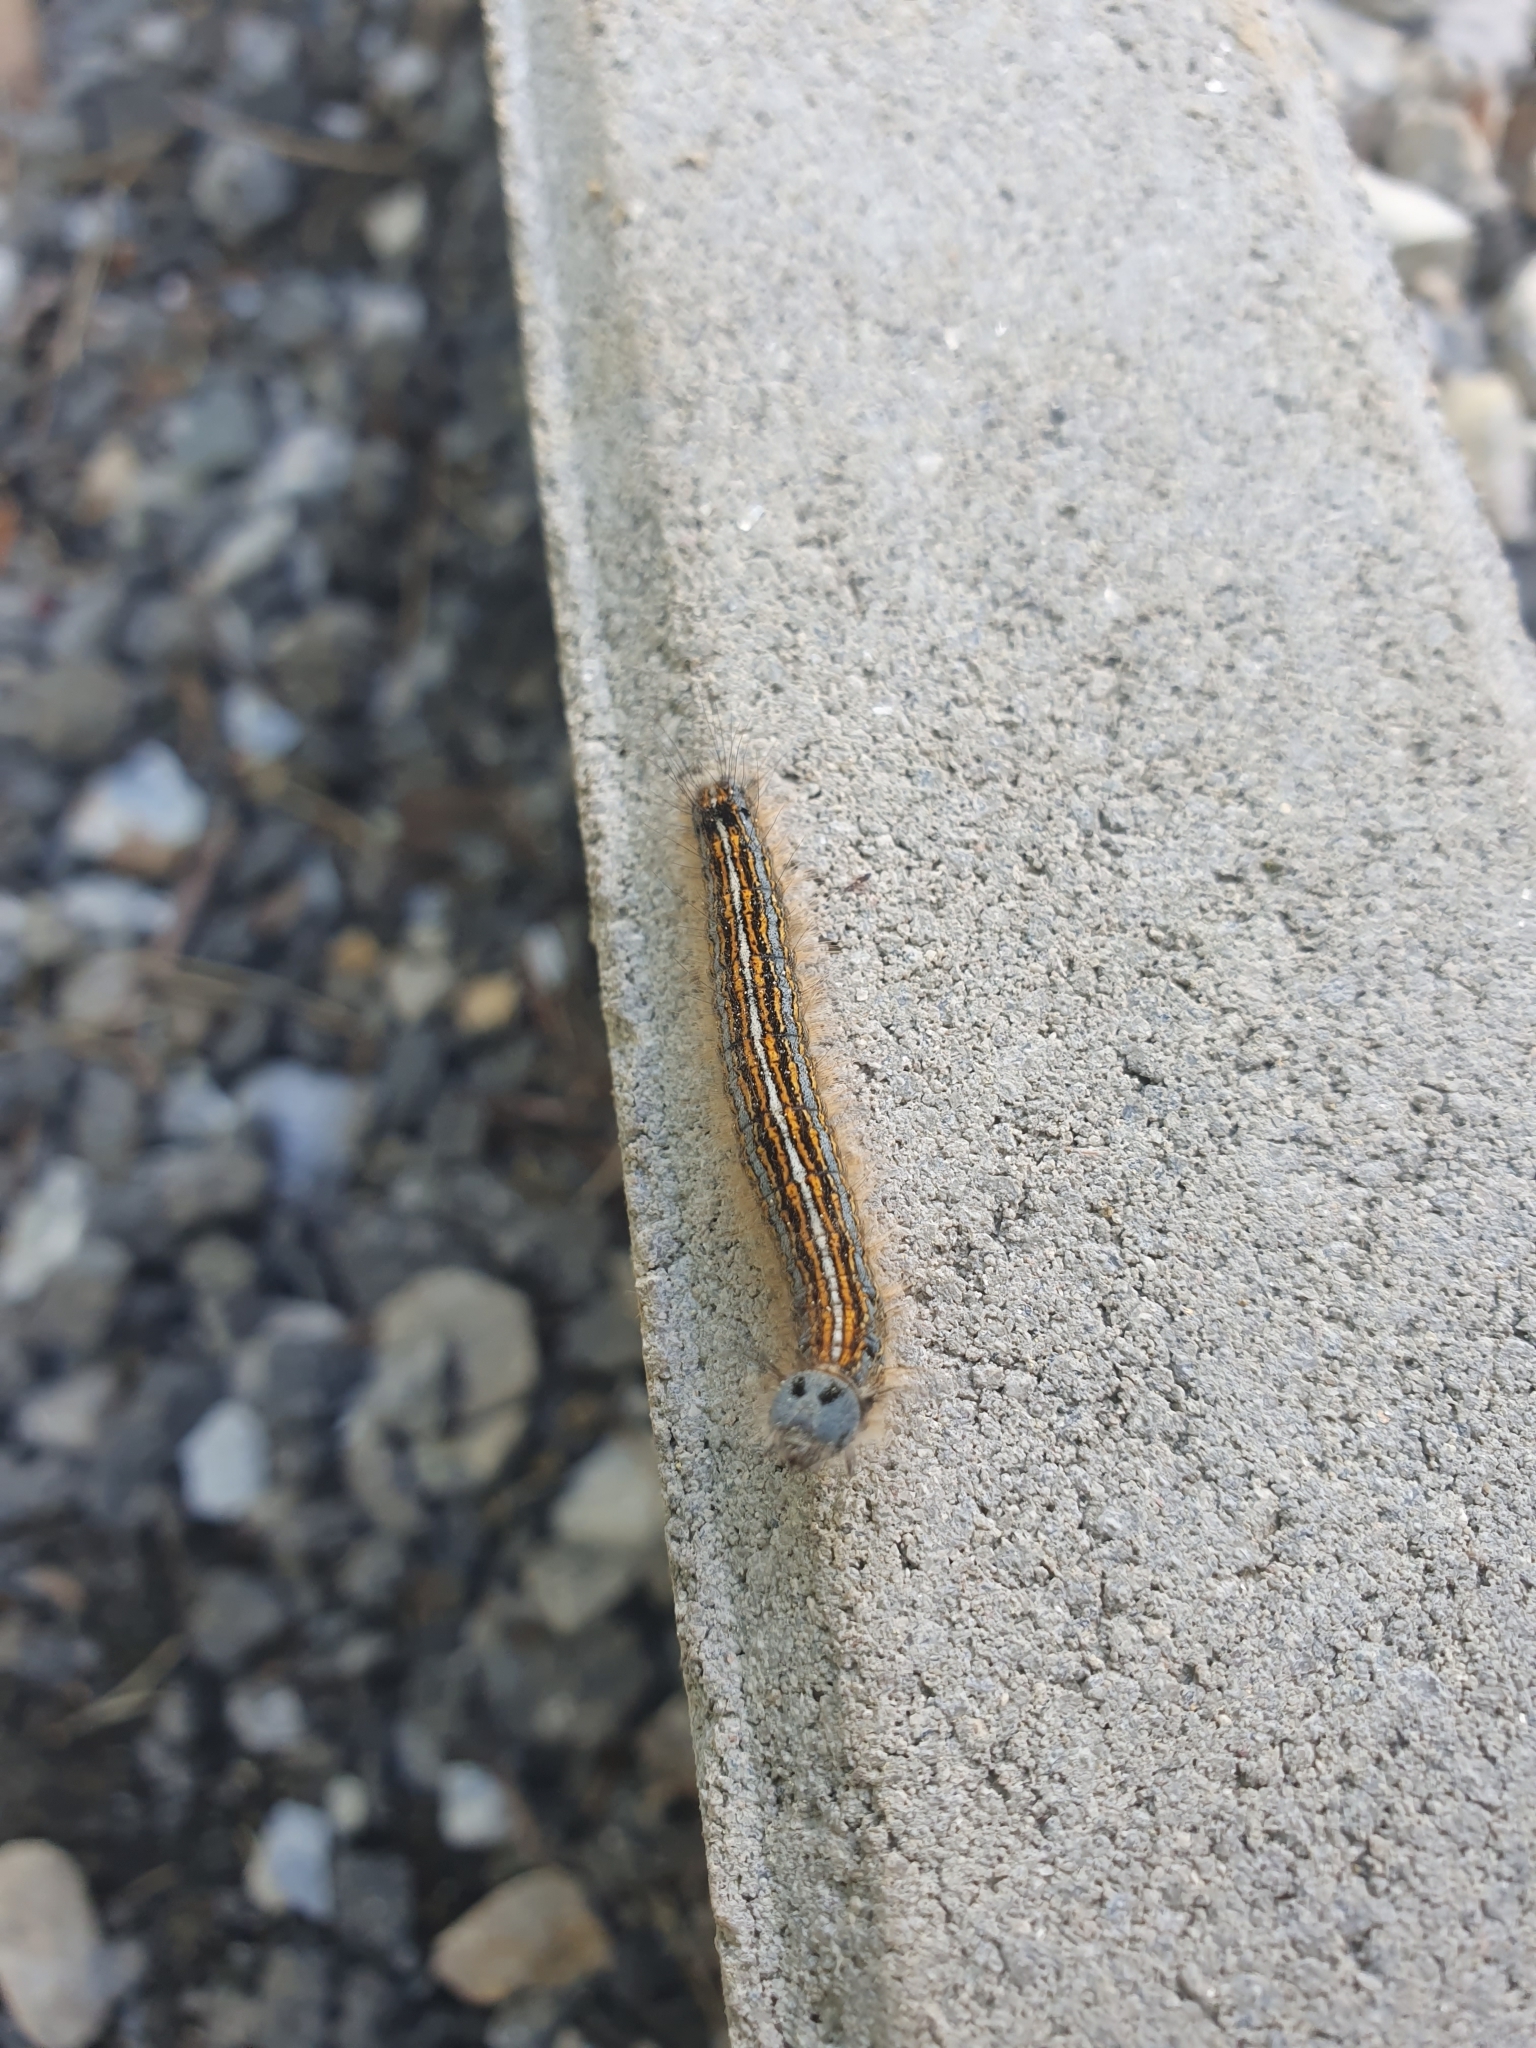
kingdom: Animalia
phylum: Arthropoda
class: Insecta
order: Lepidoptera
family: Lasiocampidae
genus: Malacosoma
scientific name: Malacosoma neustria
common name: The lackey
